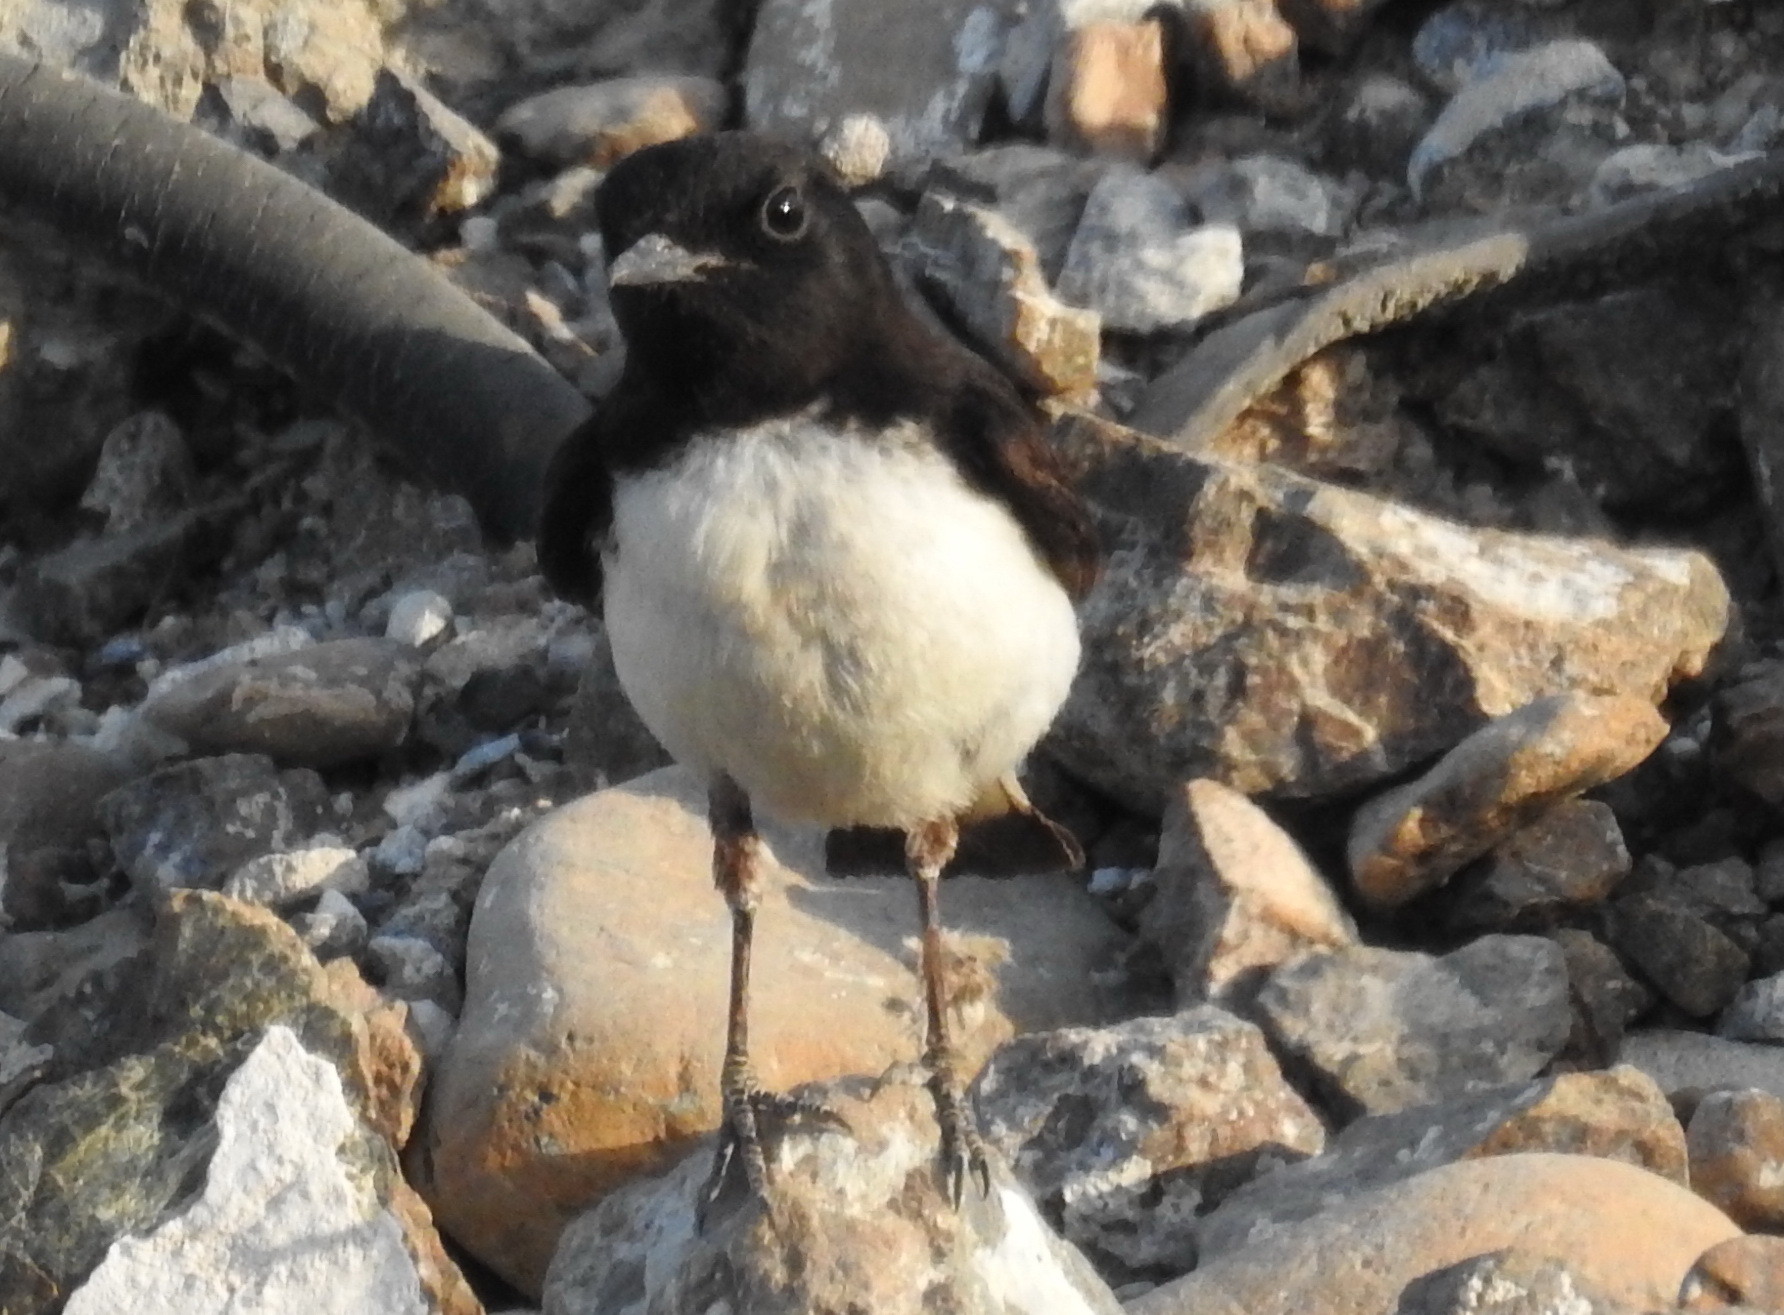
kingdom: Animalia
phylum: Chordata
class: Aves
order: Passeriformes
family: Muscicapidae
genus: Oenanthe
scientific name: Oenanthe albonigra
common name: Hume's wheatear
